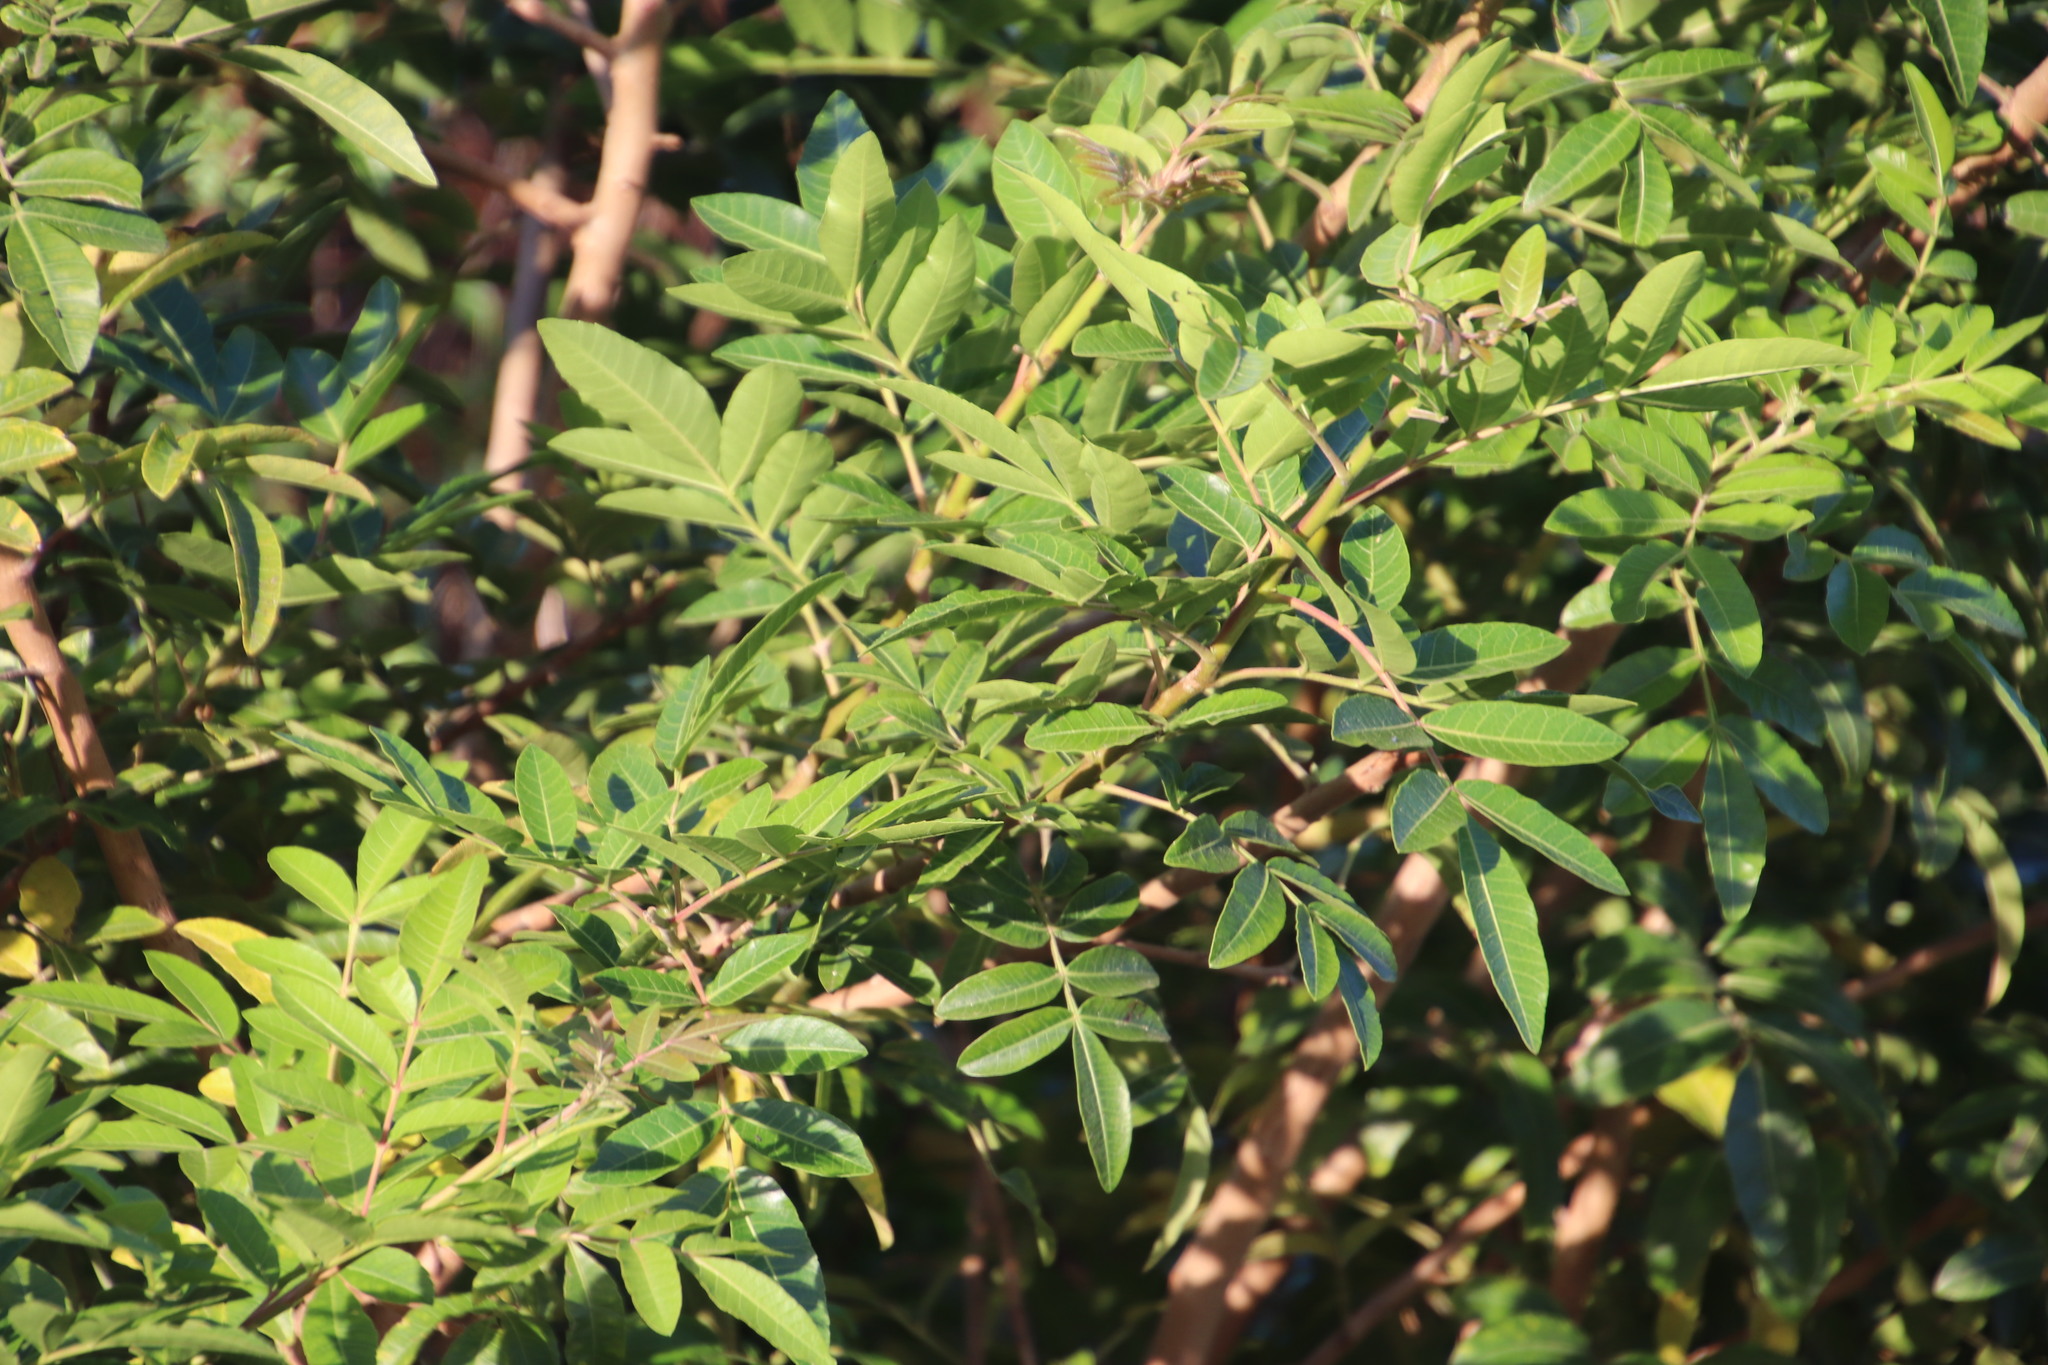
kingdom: Plantae
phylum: Tracheophyta
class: Magnoliopsida
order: Sapindales
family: Anacardiaceae
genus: Schinus
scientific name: Schinus terebinthifolia
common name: Brazilian peppertree
